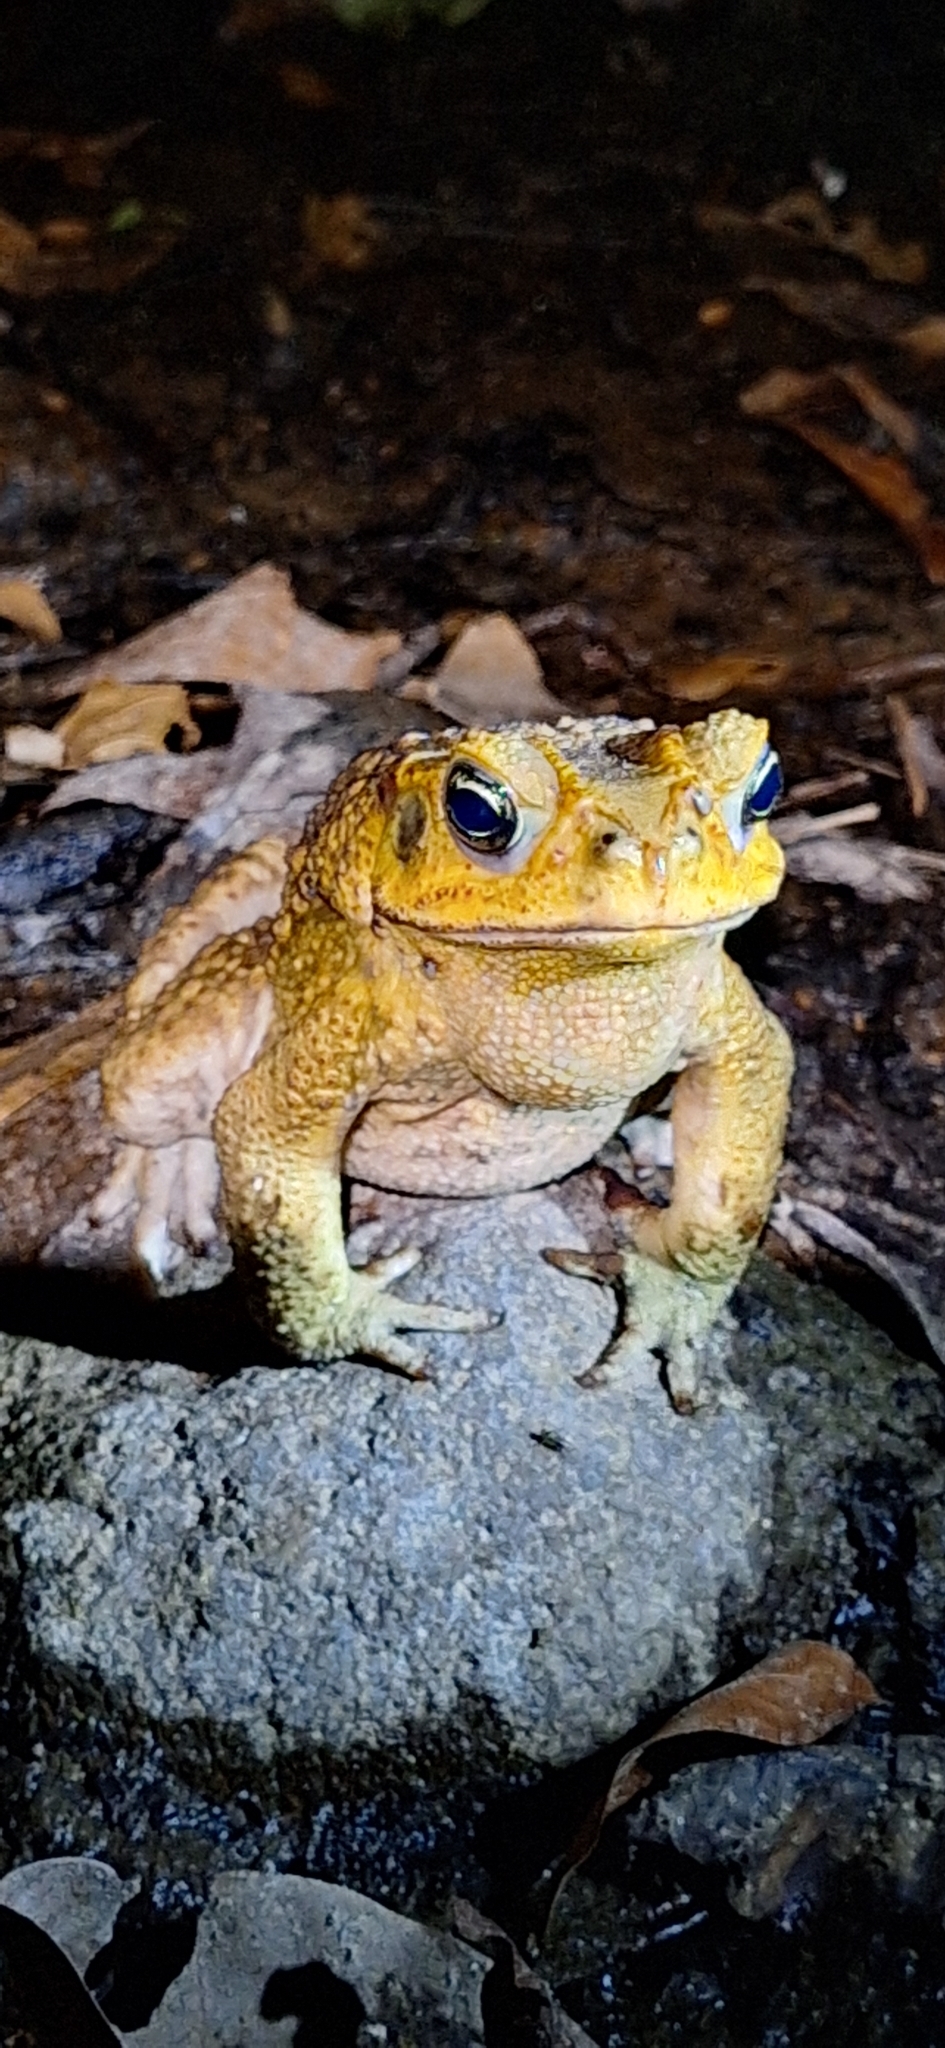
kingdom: Animalia
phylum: Chordata
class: Amphibia
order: Anura
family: Bufonidae
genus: Rhinella
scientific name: Rhinella horribilis
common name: Mesoamerican cane toad
